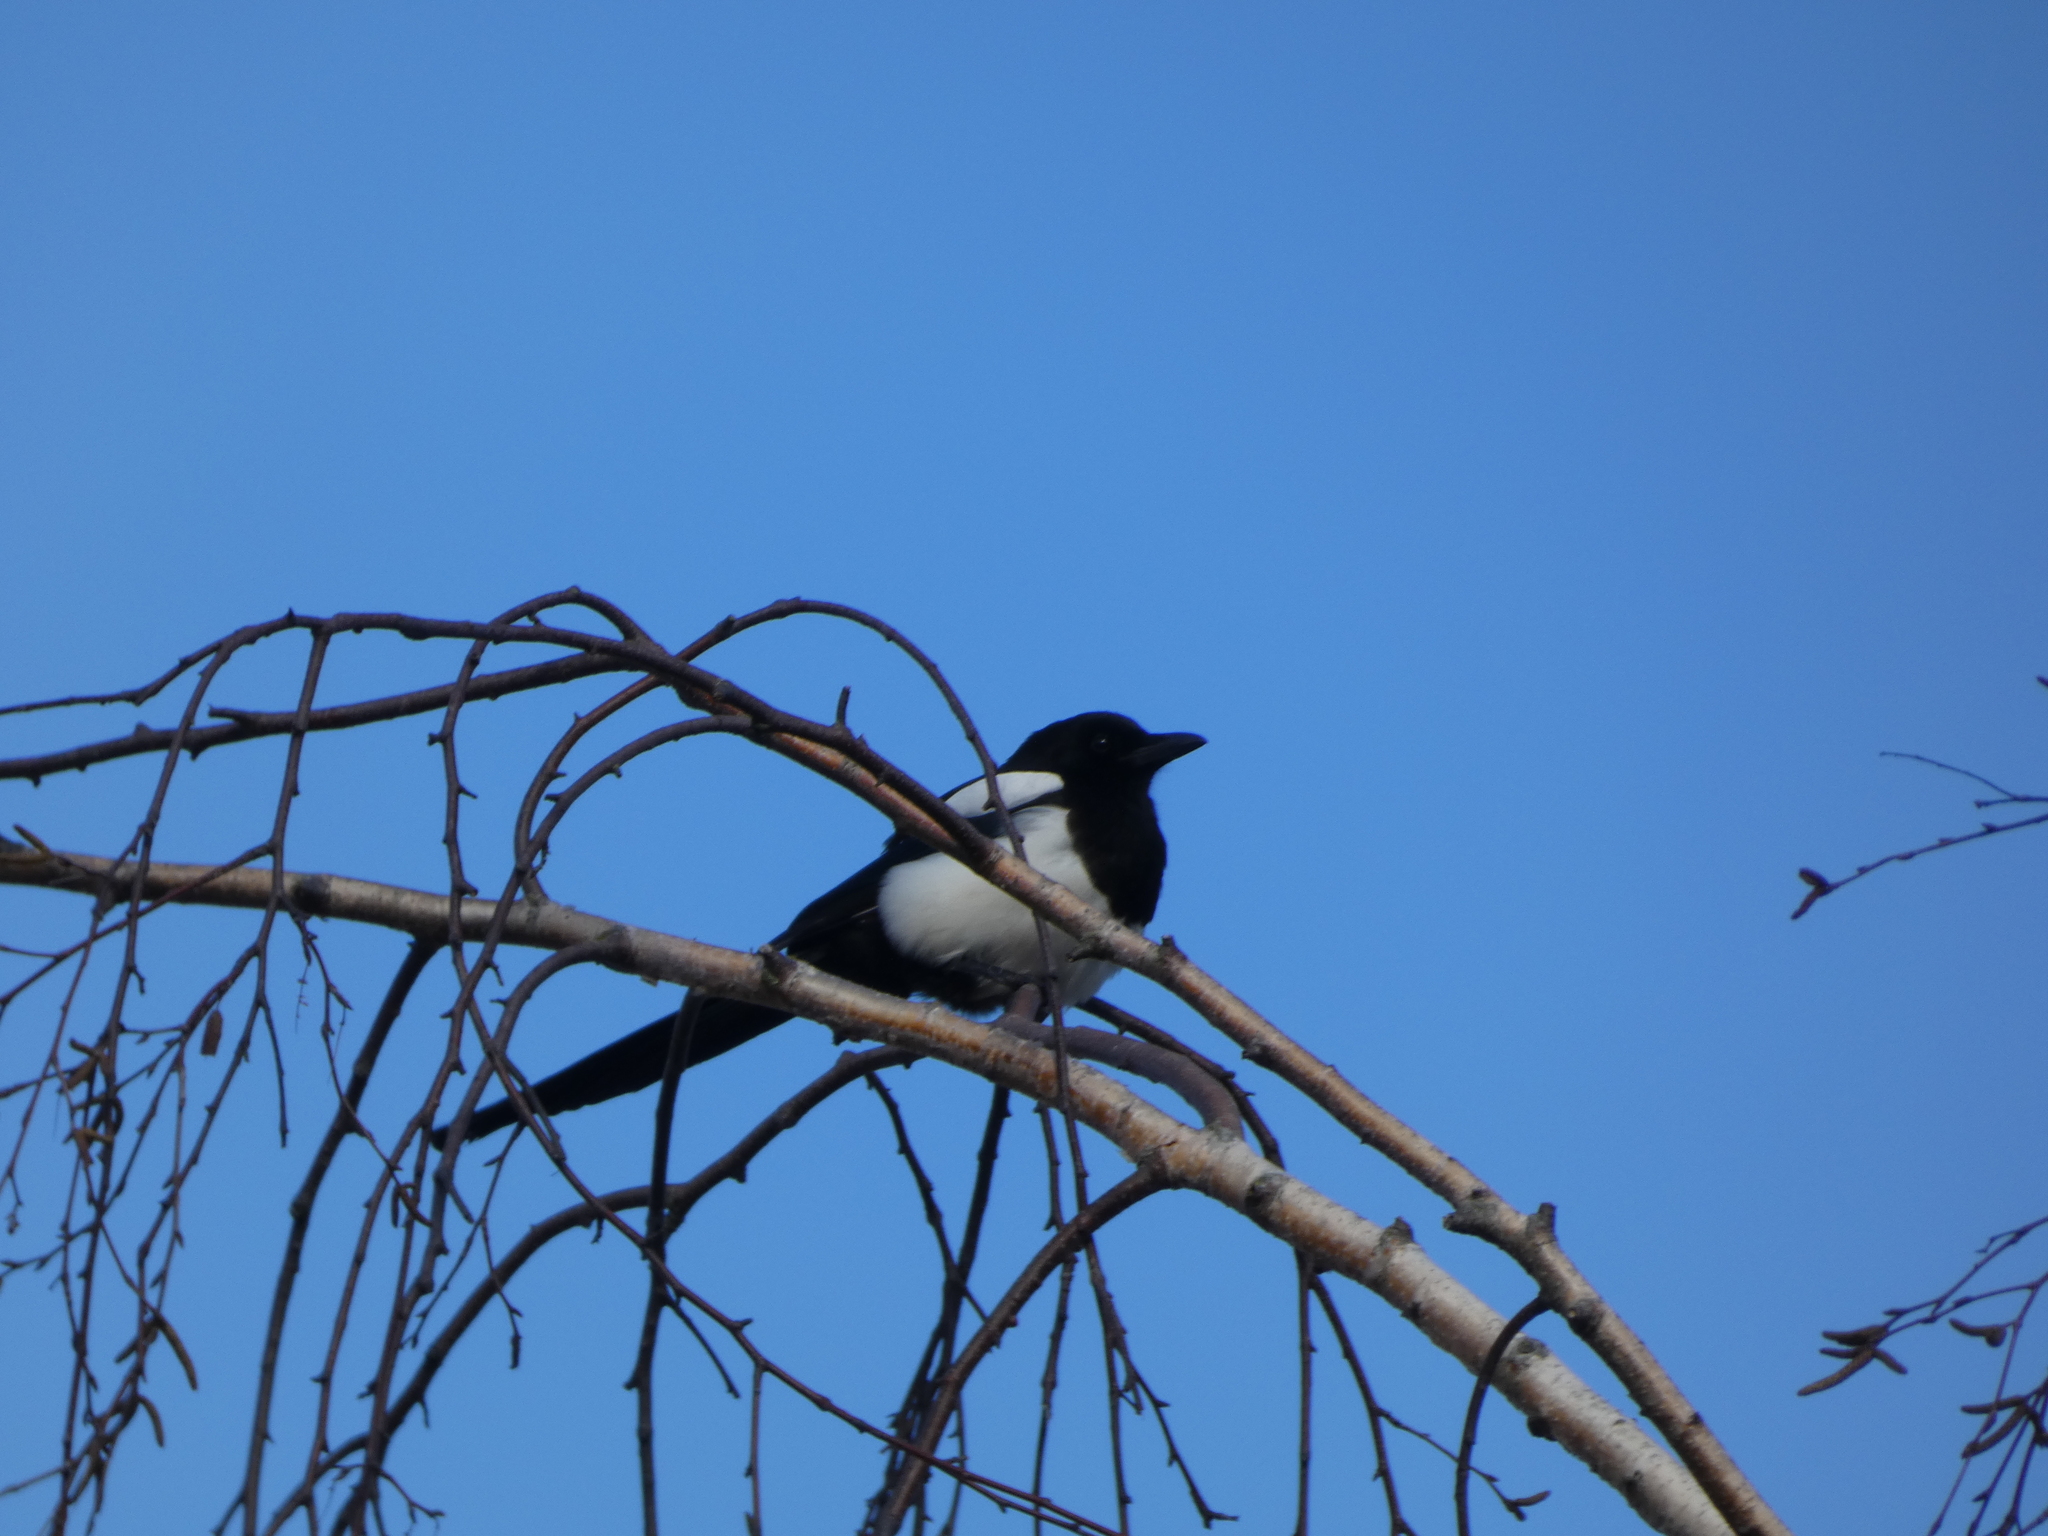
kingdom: Animalia
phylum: Chordata
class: Aves
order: Passeriformes
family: Corvidae
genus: Pica
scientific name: Pica pica
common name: Eurasian magpie
